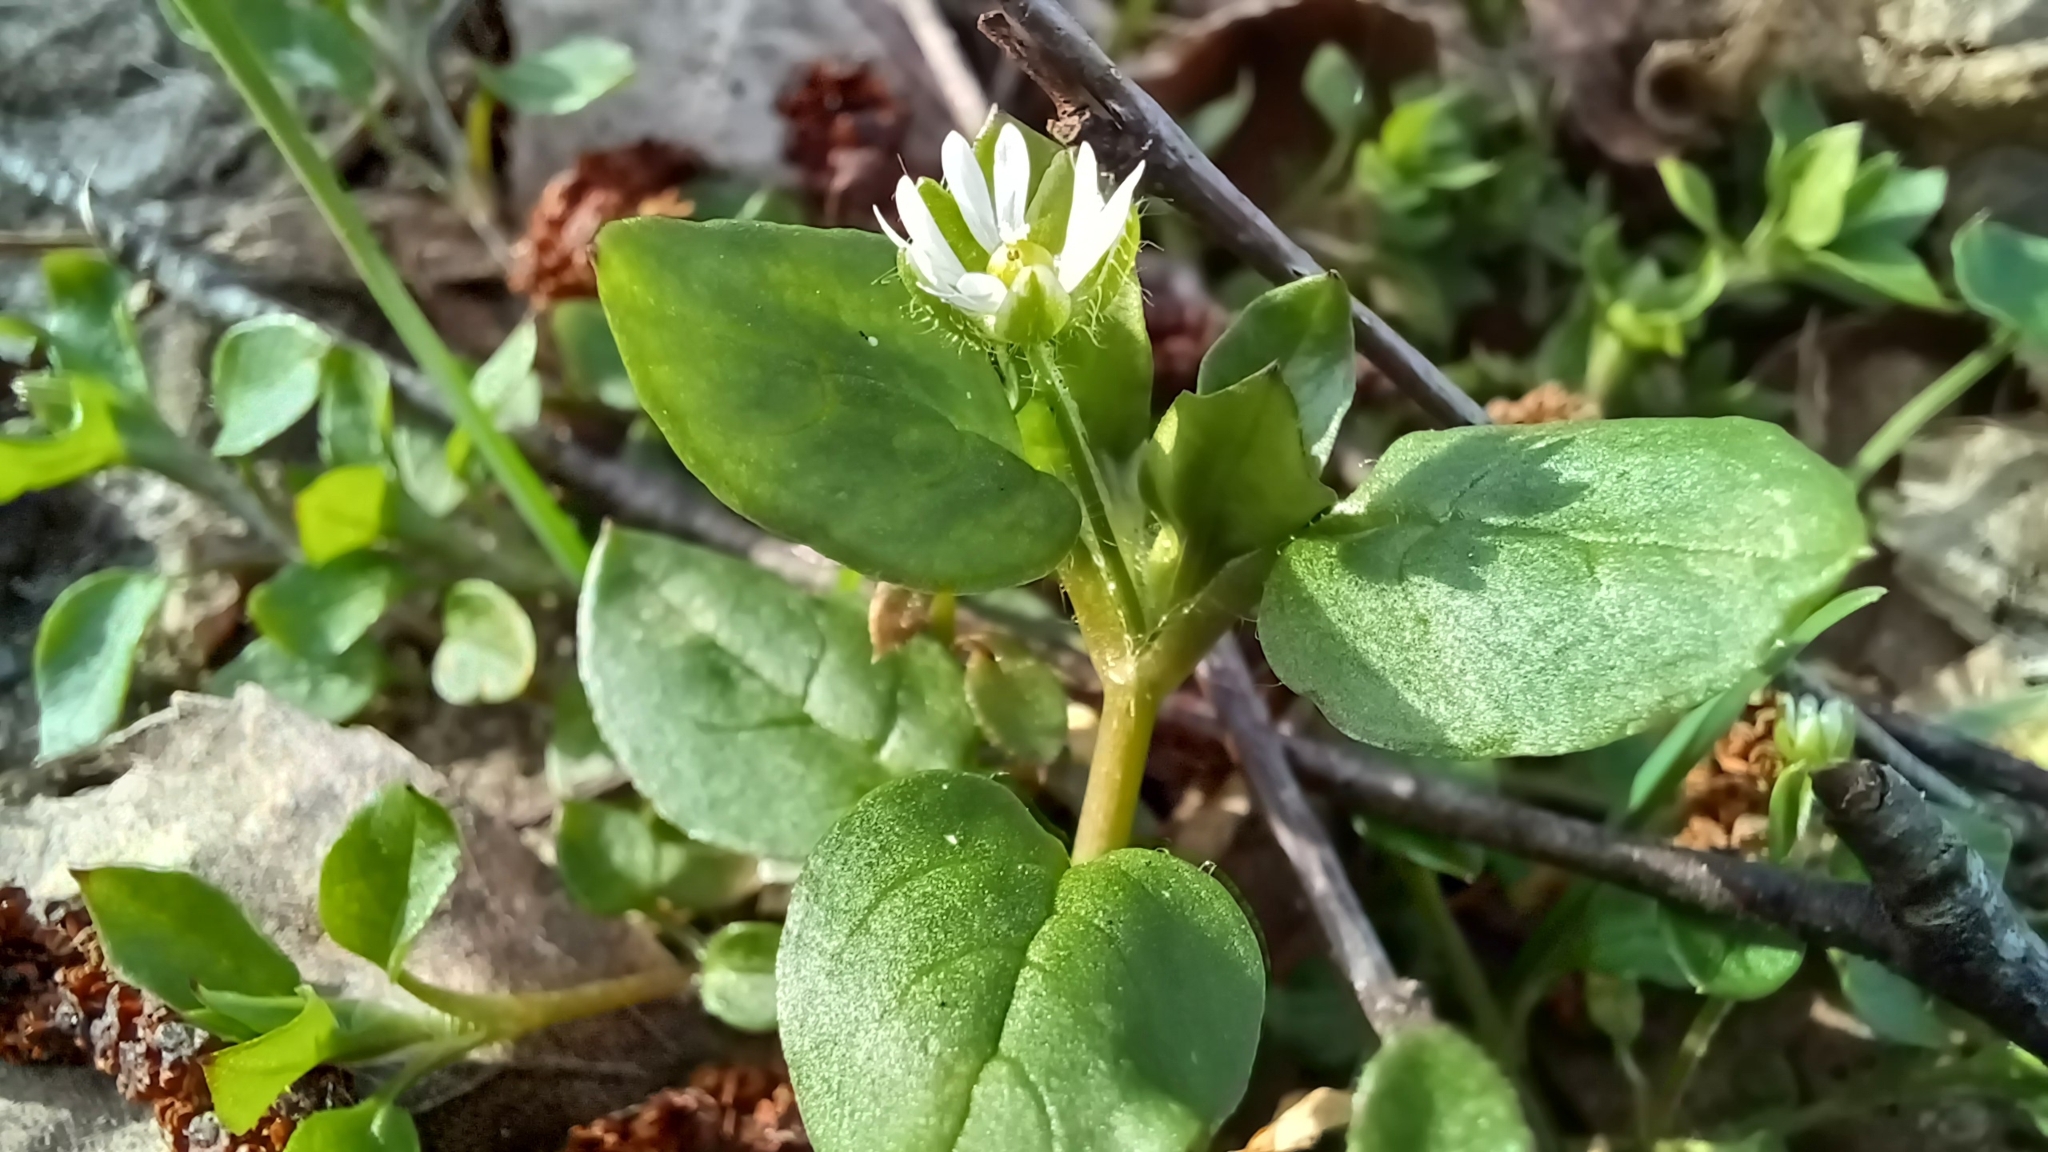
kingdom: Plantae
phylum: Tracheophyta
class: Magnoliopsida
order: Caryophyllales
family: Caryophyllaceae
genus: Stellaria
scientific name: Stellaria aquatica
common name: Water chickweed
